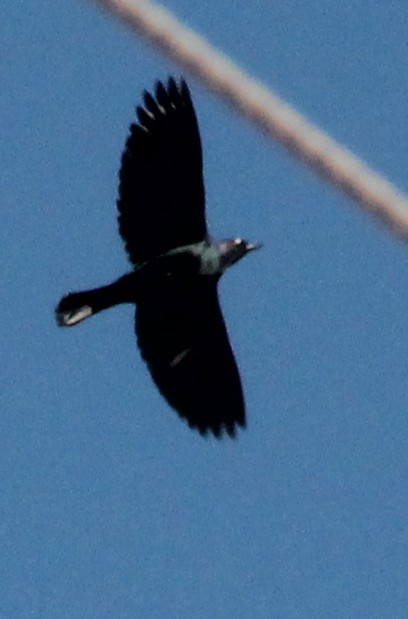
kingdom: Animalia
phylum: Chordata
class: Aves
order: Passeriformes
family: Icteridae
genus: Euphagus
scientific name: Euphagus cyanocephalus
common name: Brewer's blackbird
